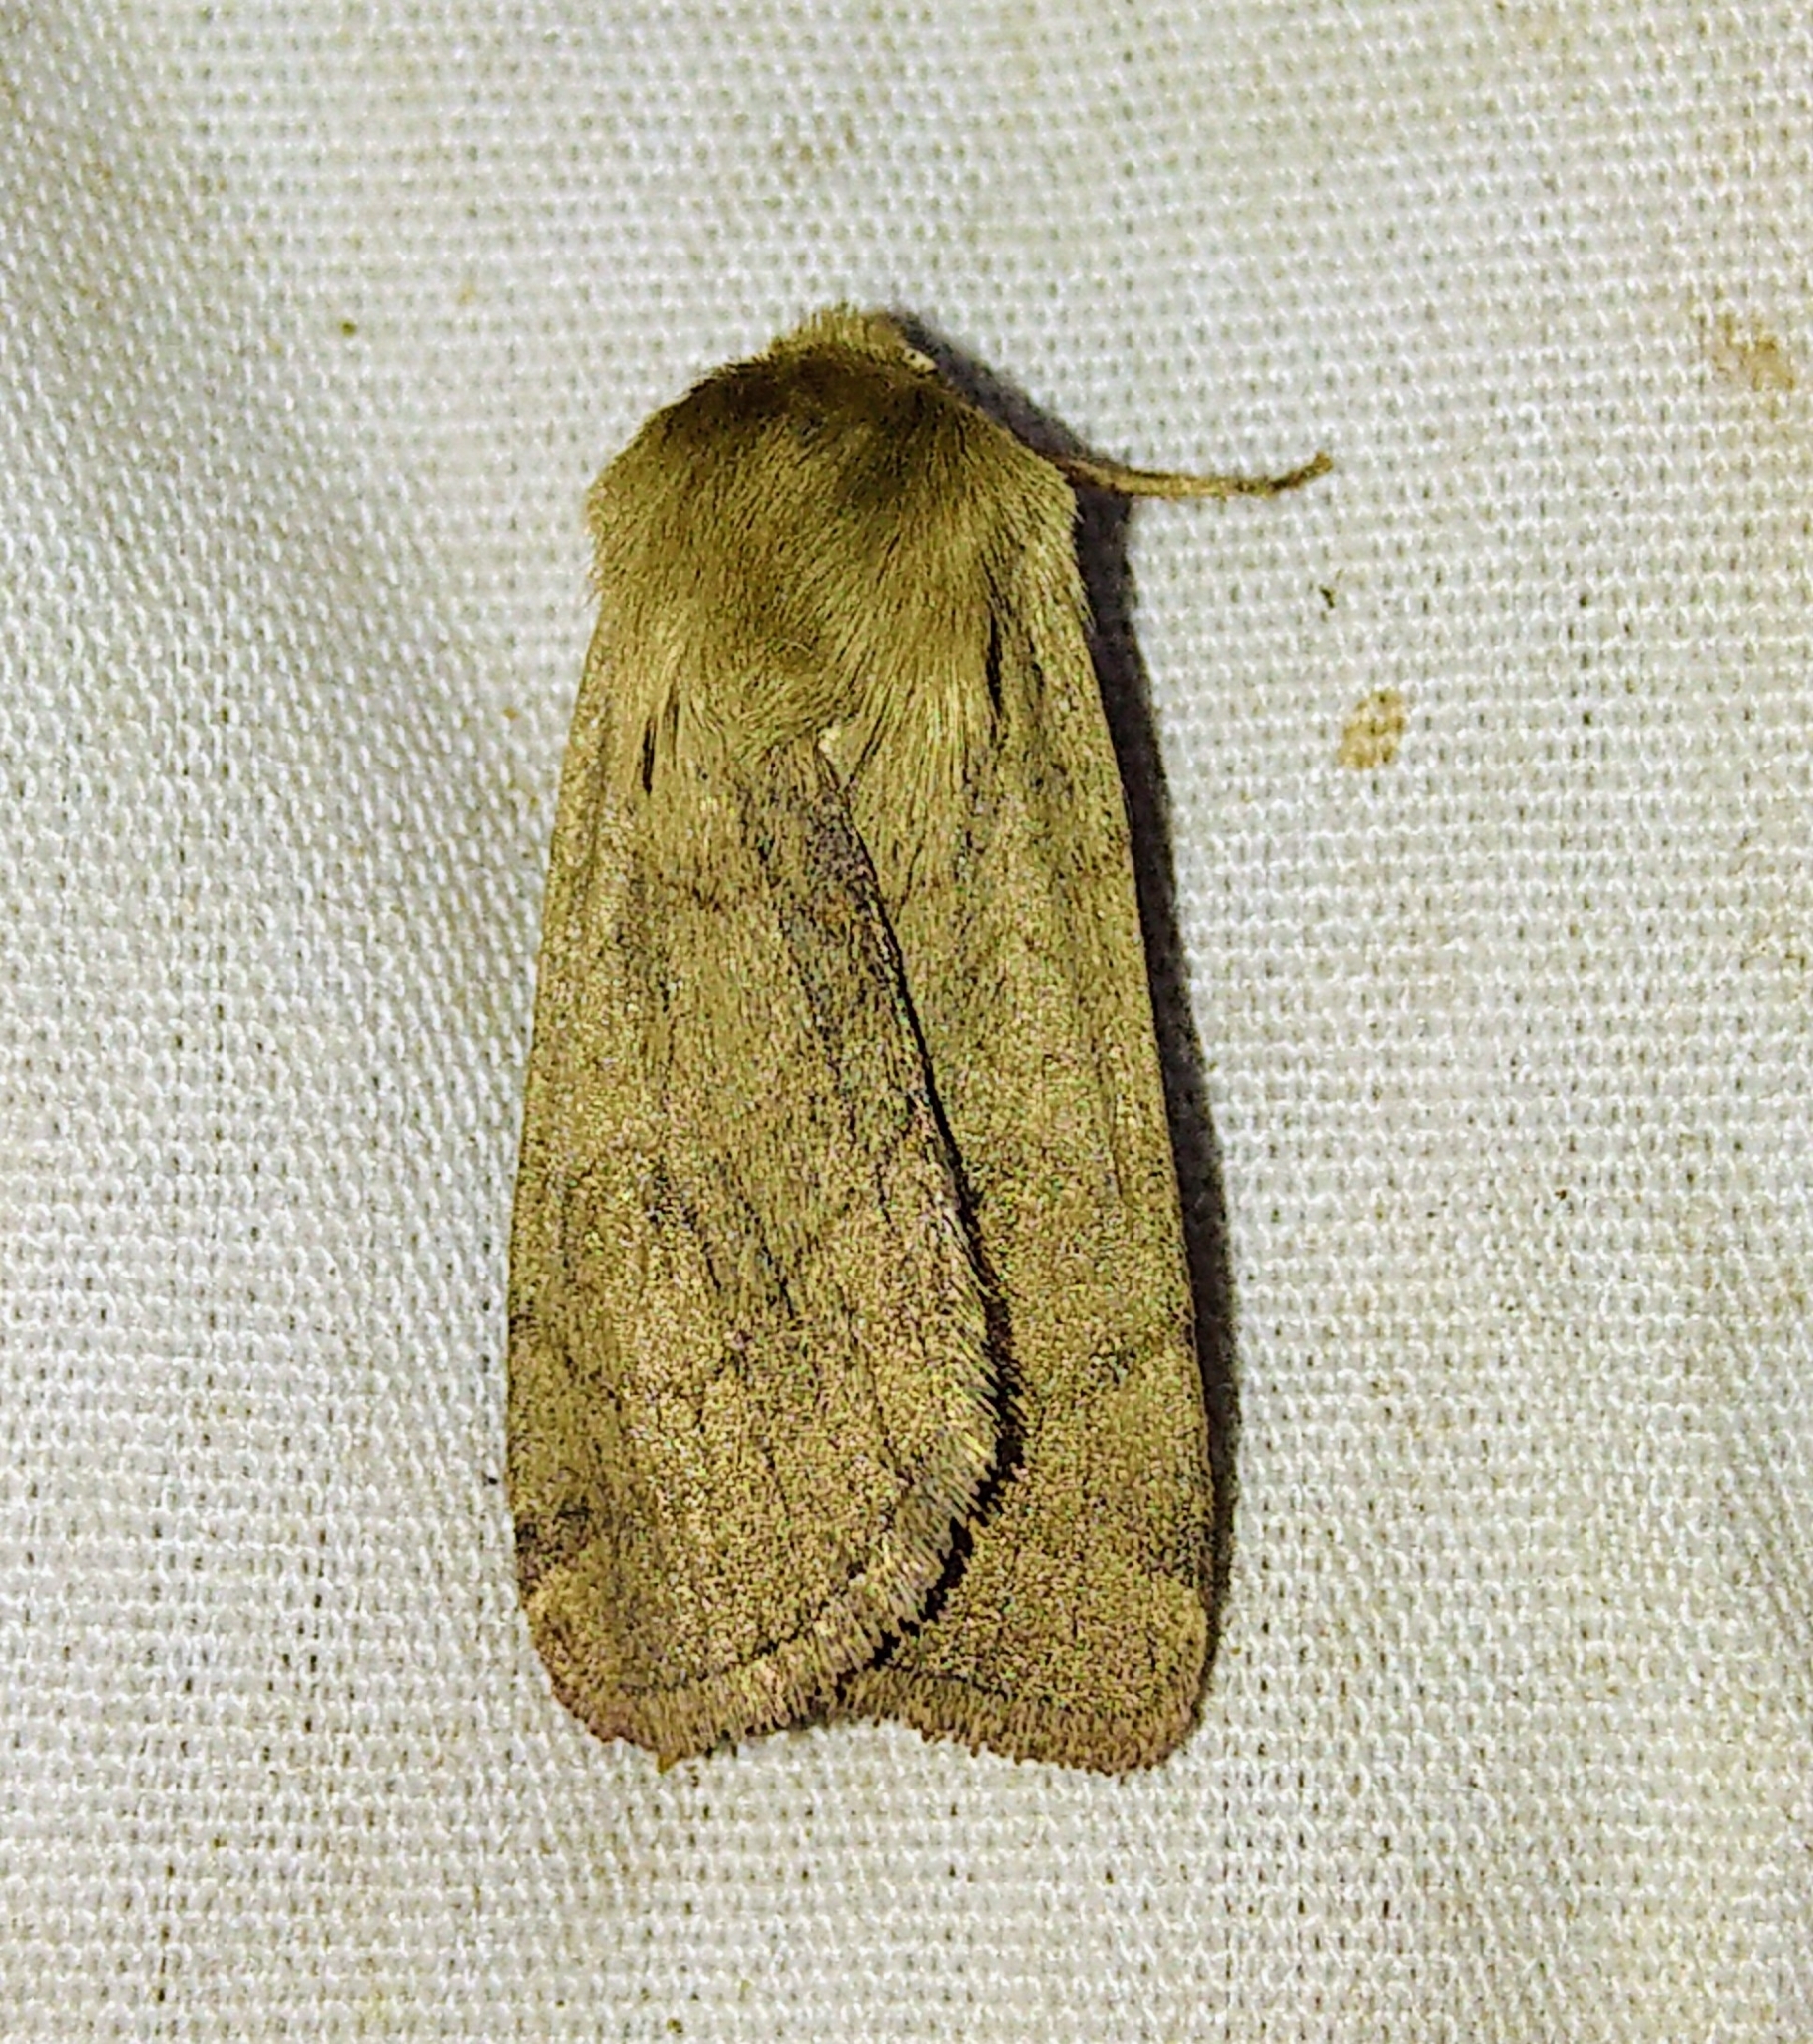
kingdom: Animalia
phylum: Arthropoda
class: Insecta
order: Lepidoptera
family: Noctuidae
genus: Paradiarsia
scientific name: Paradiarsia littoralis
